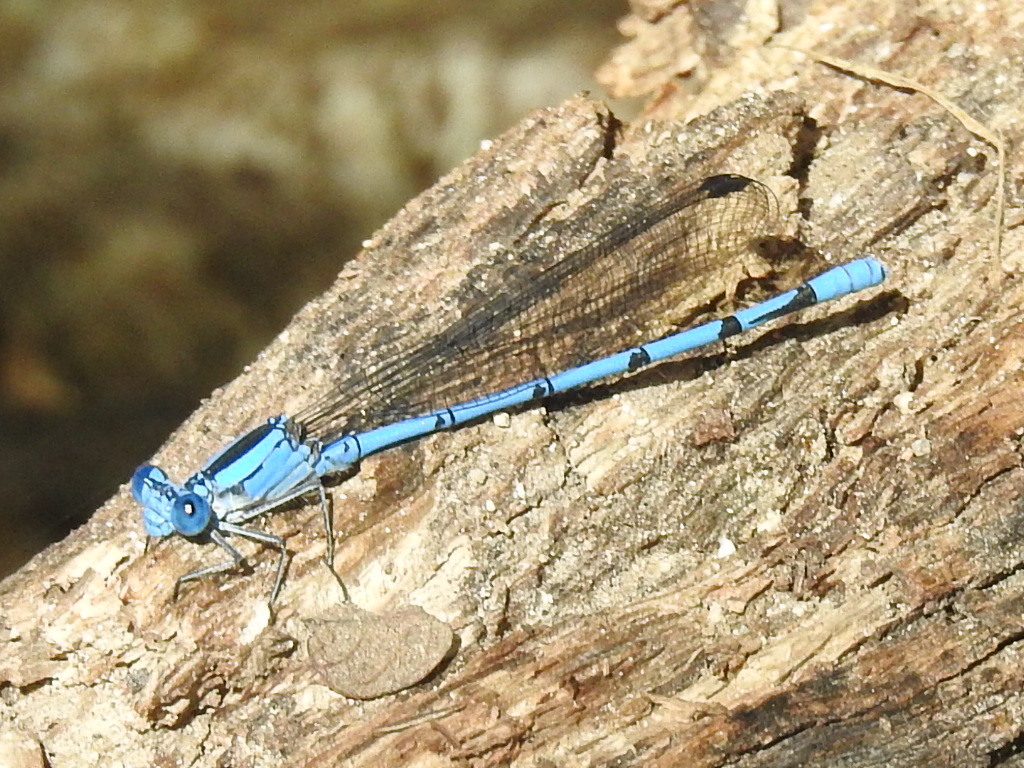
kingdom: Animalia
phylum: Arthropoda
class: Insecta
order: Odonata
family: Coenagrionidae
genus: Argia
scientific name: Argia lacrimans
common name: Sierra madre dancer
